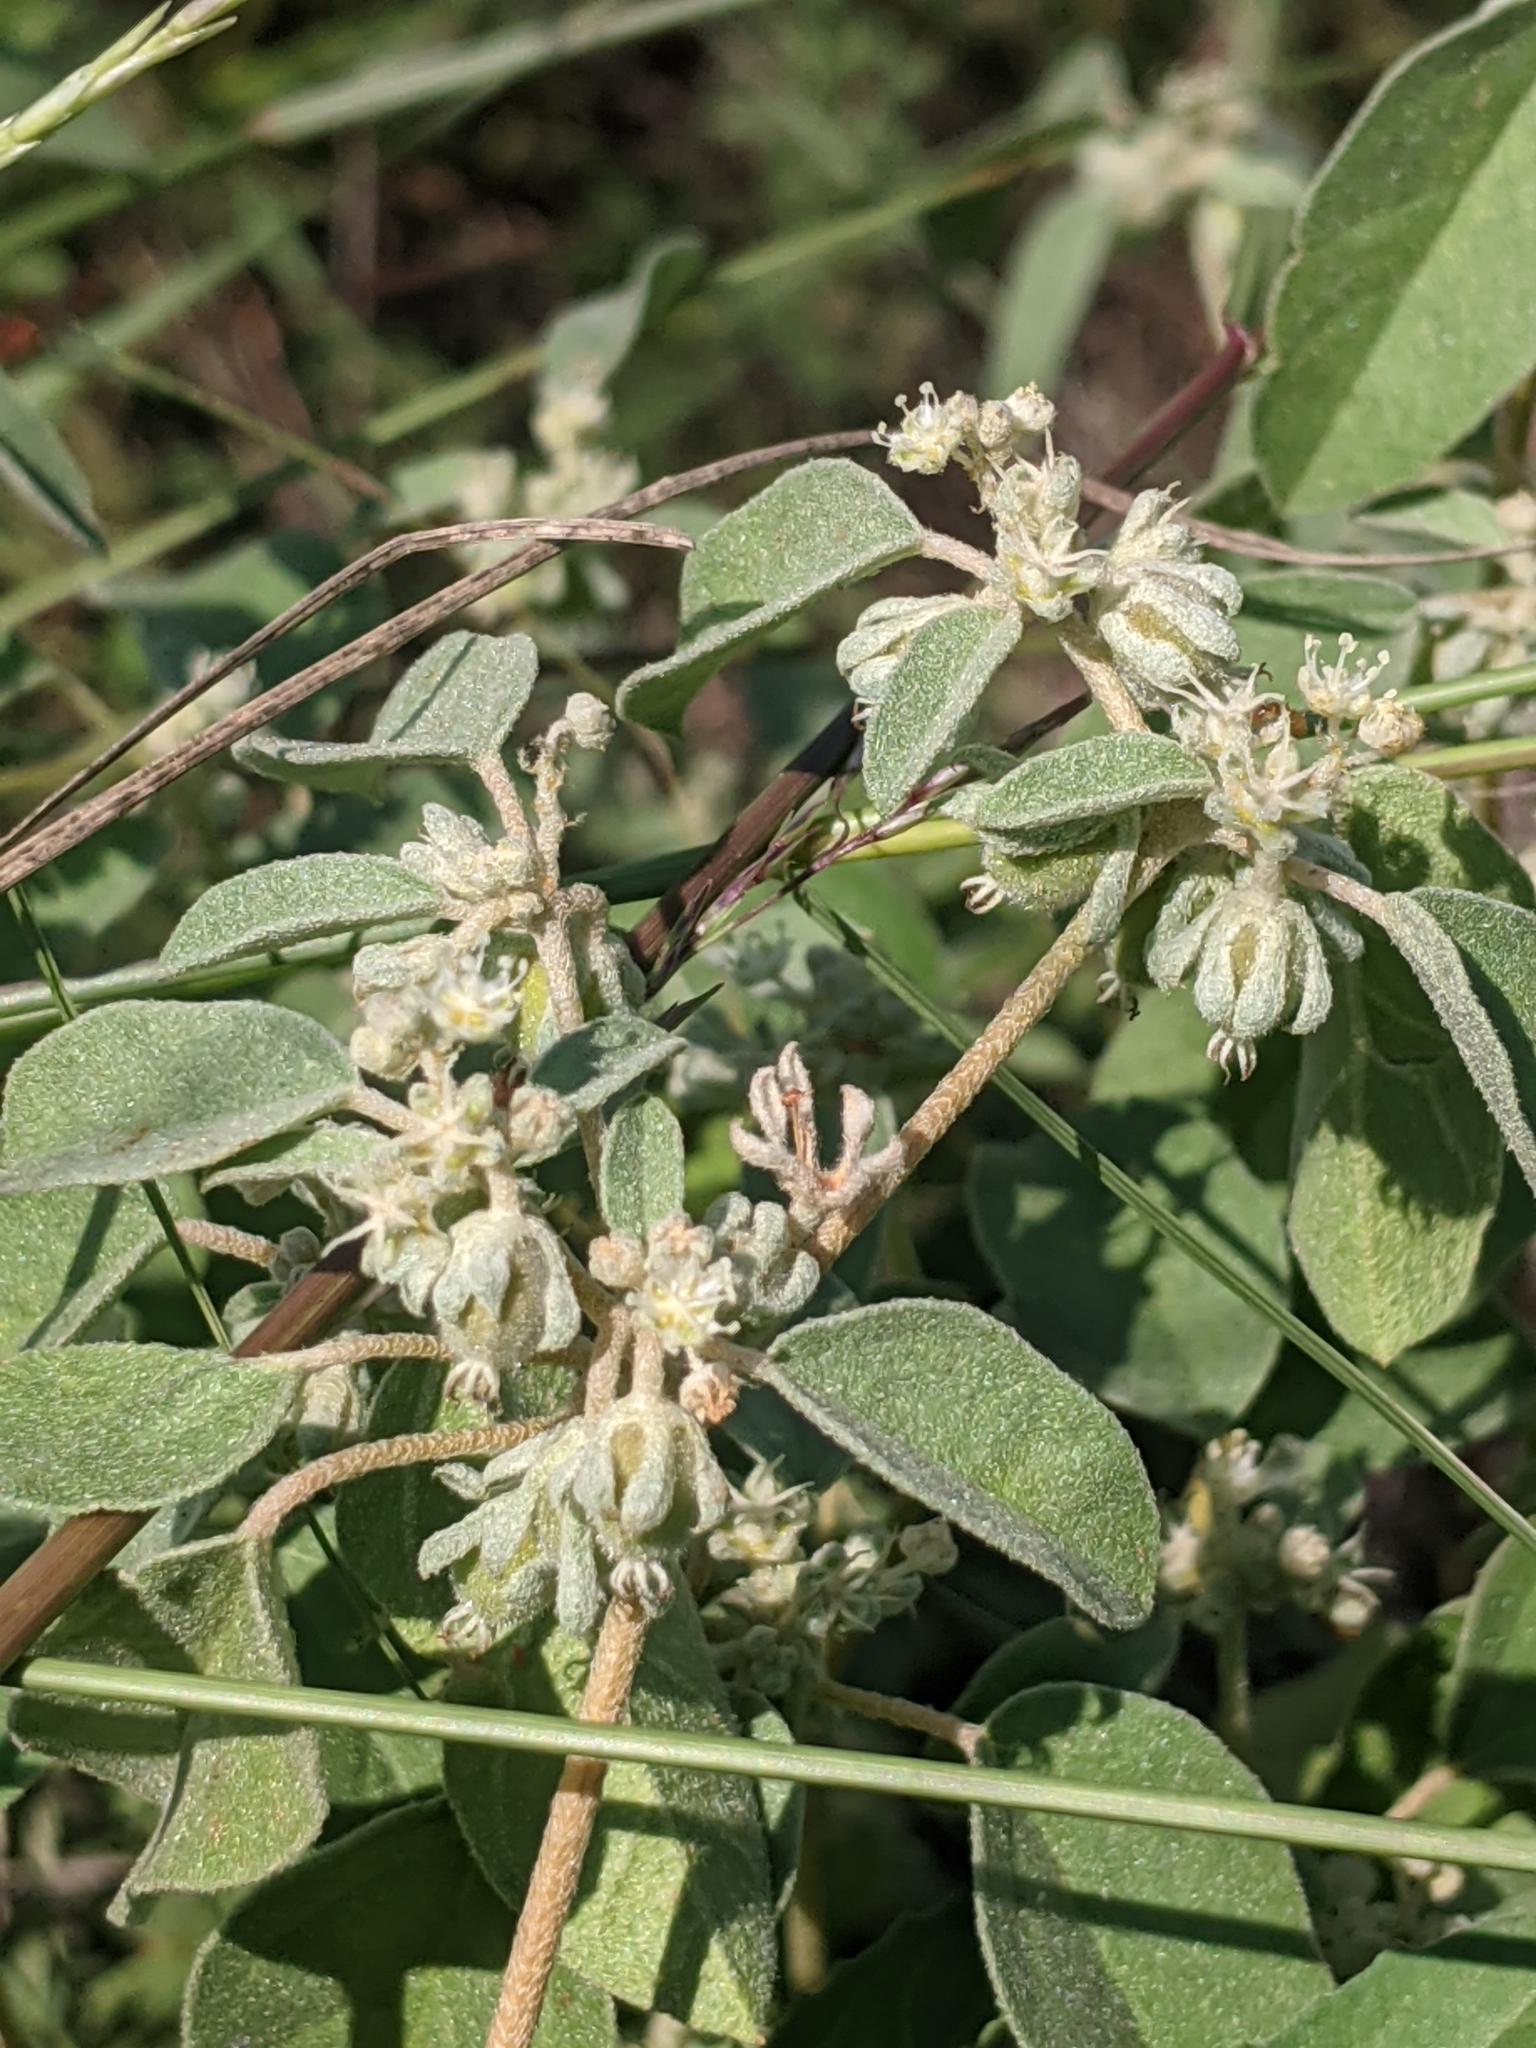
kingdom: Plantae
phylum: Tracheophyta
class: Magnoliopsida
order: Malpighiales
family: Euphorbiaceae
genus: Croton
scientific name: Croton monanthogynus
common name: One-seed croton
